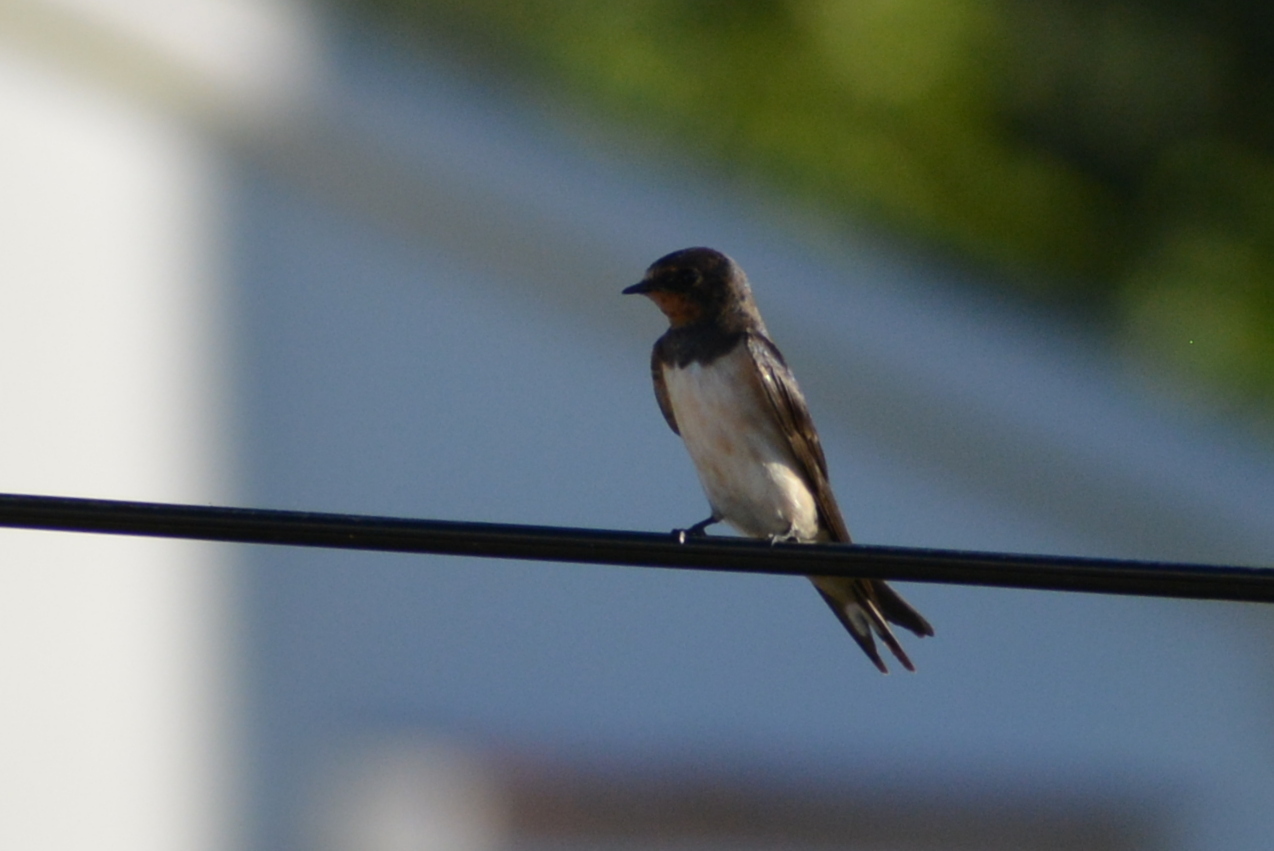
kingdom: Animalia
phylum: Chordata
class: Aves
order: Passeriformes
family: Hirundinidae
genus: Hirundo
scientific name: Hirundo rustica
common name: Barn swallow
